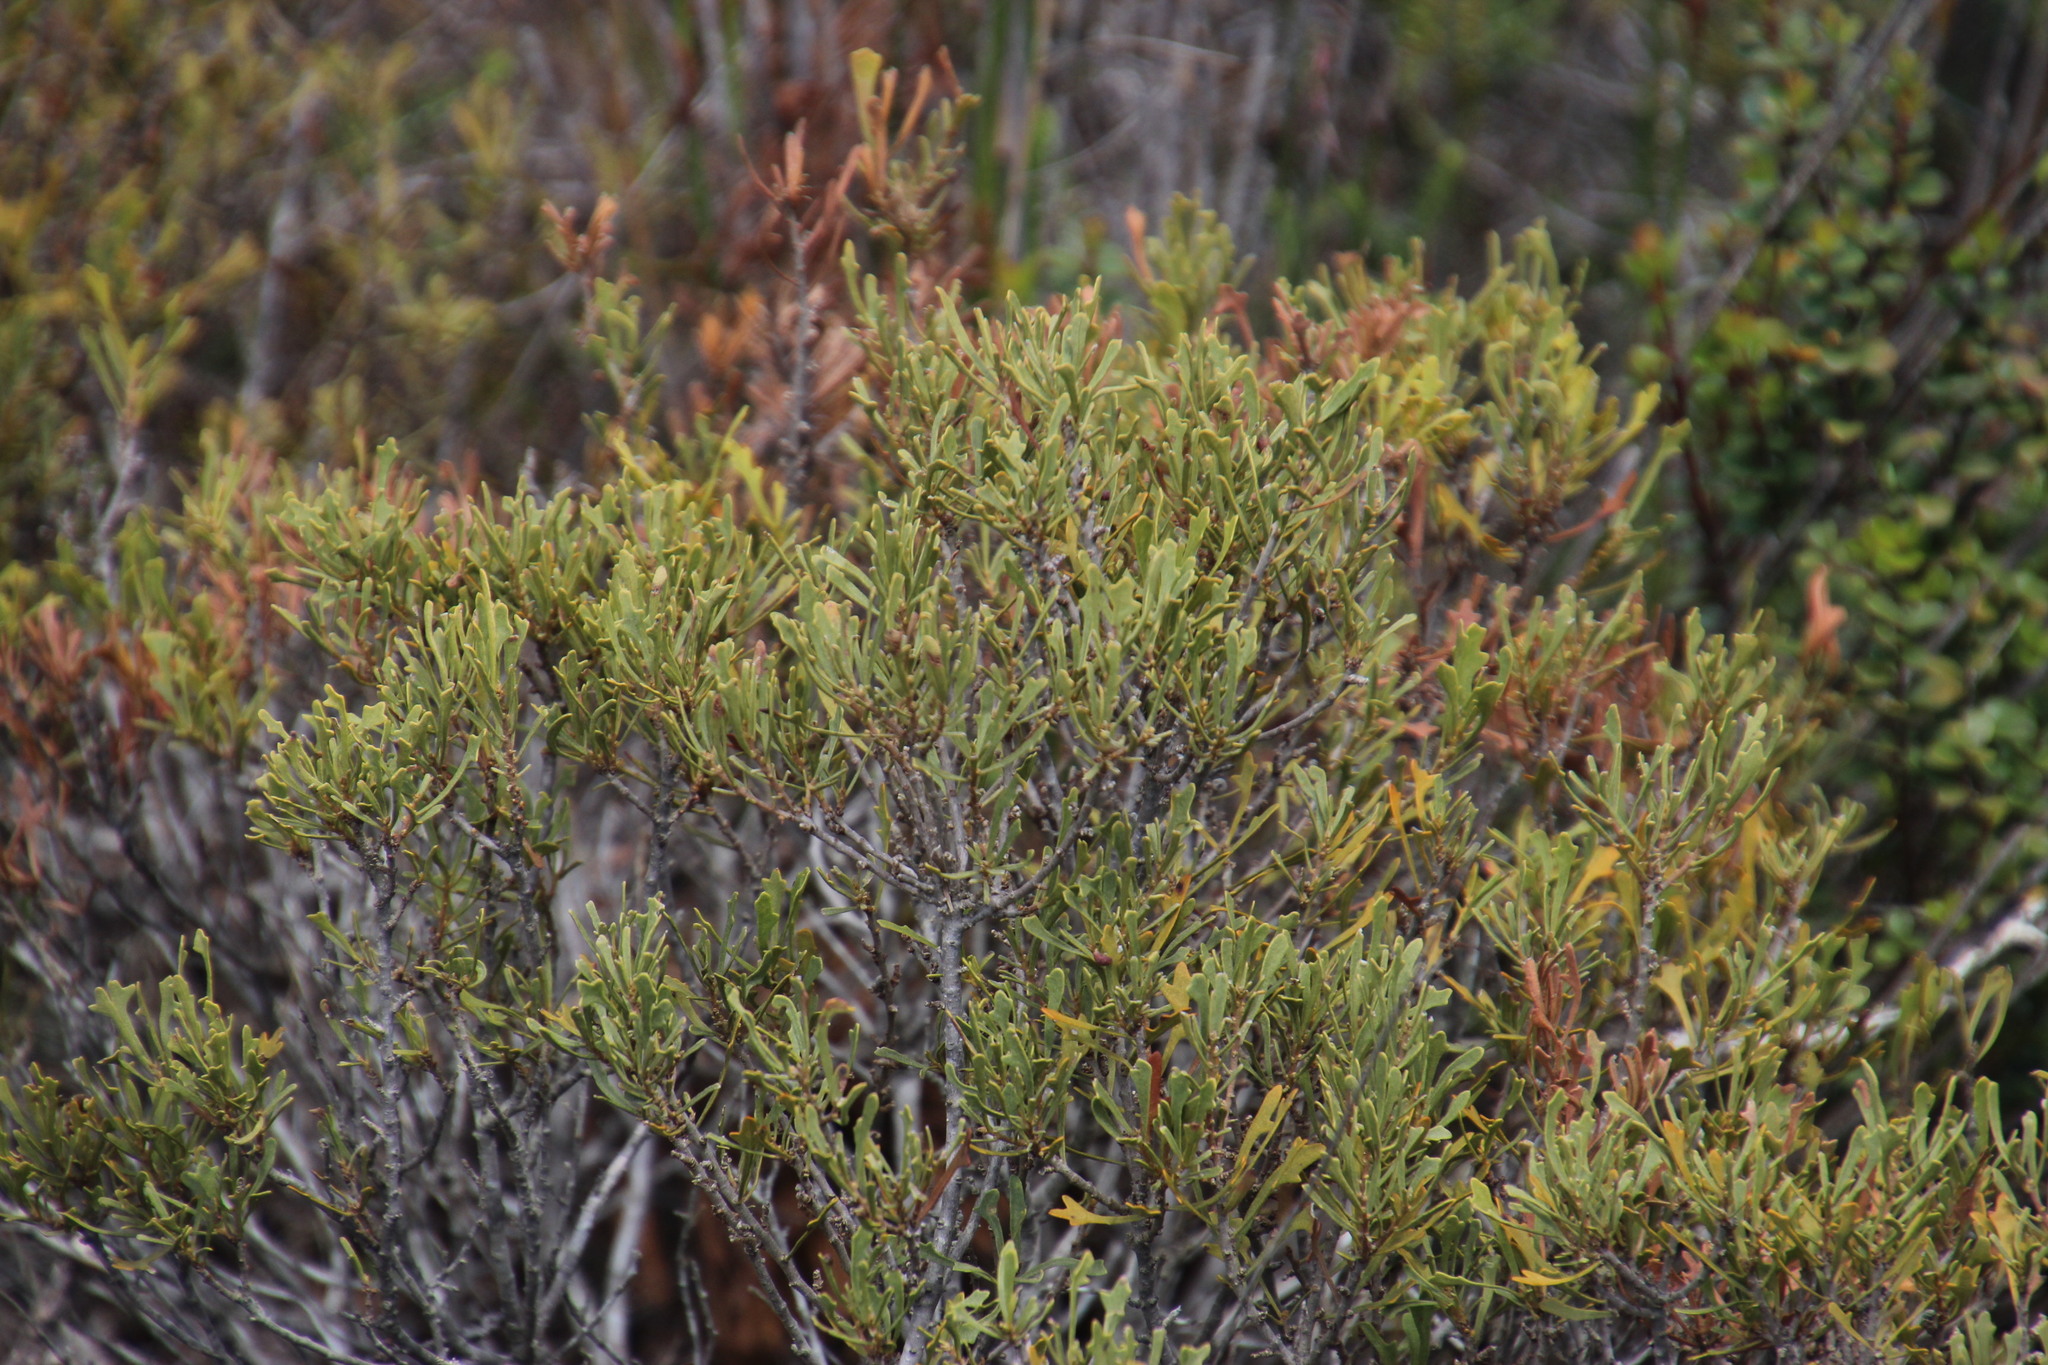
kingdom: Plantae
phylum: Tracheophyta
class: Magnoliopsida
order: Fagales
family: Myricaceae
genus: Morella
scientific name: Morella quercifolia
